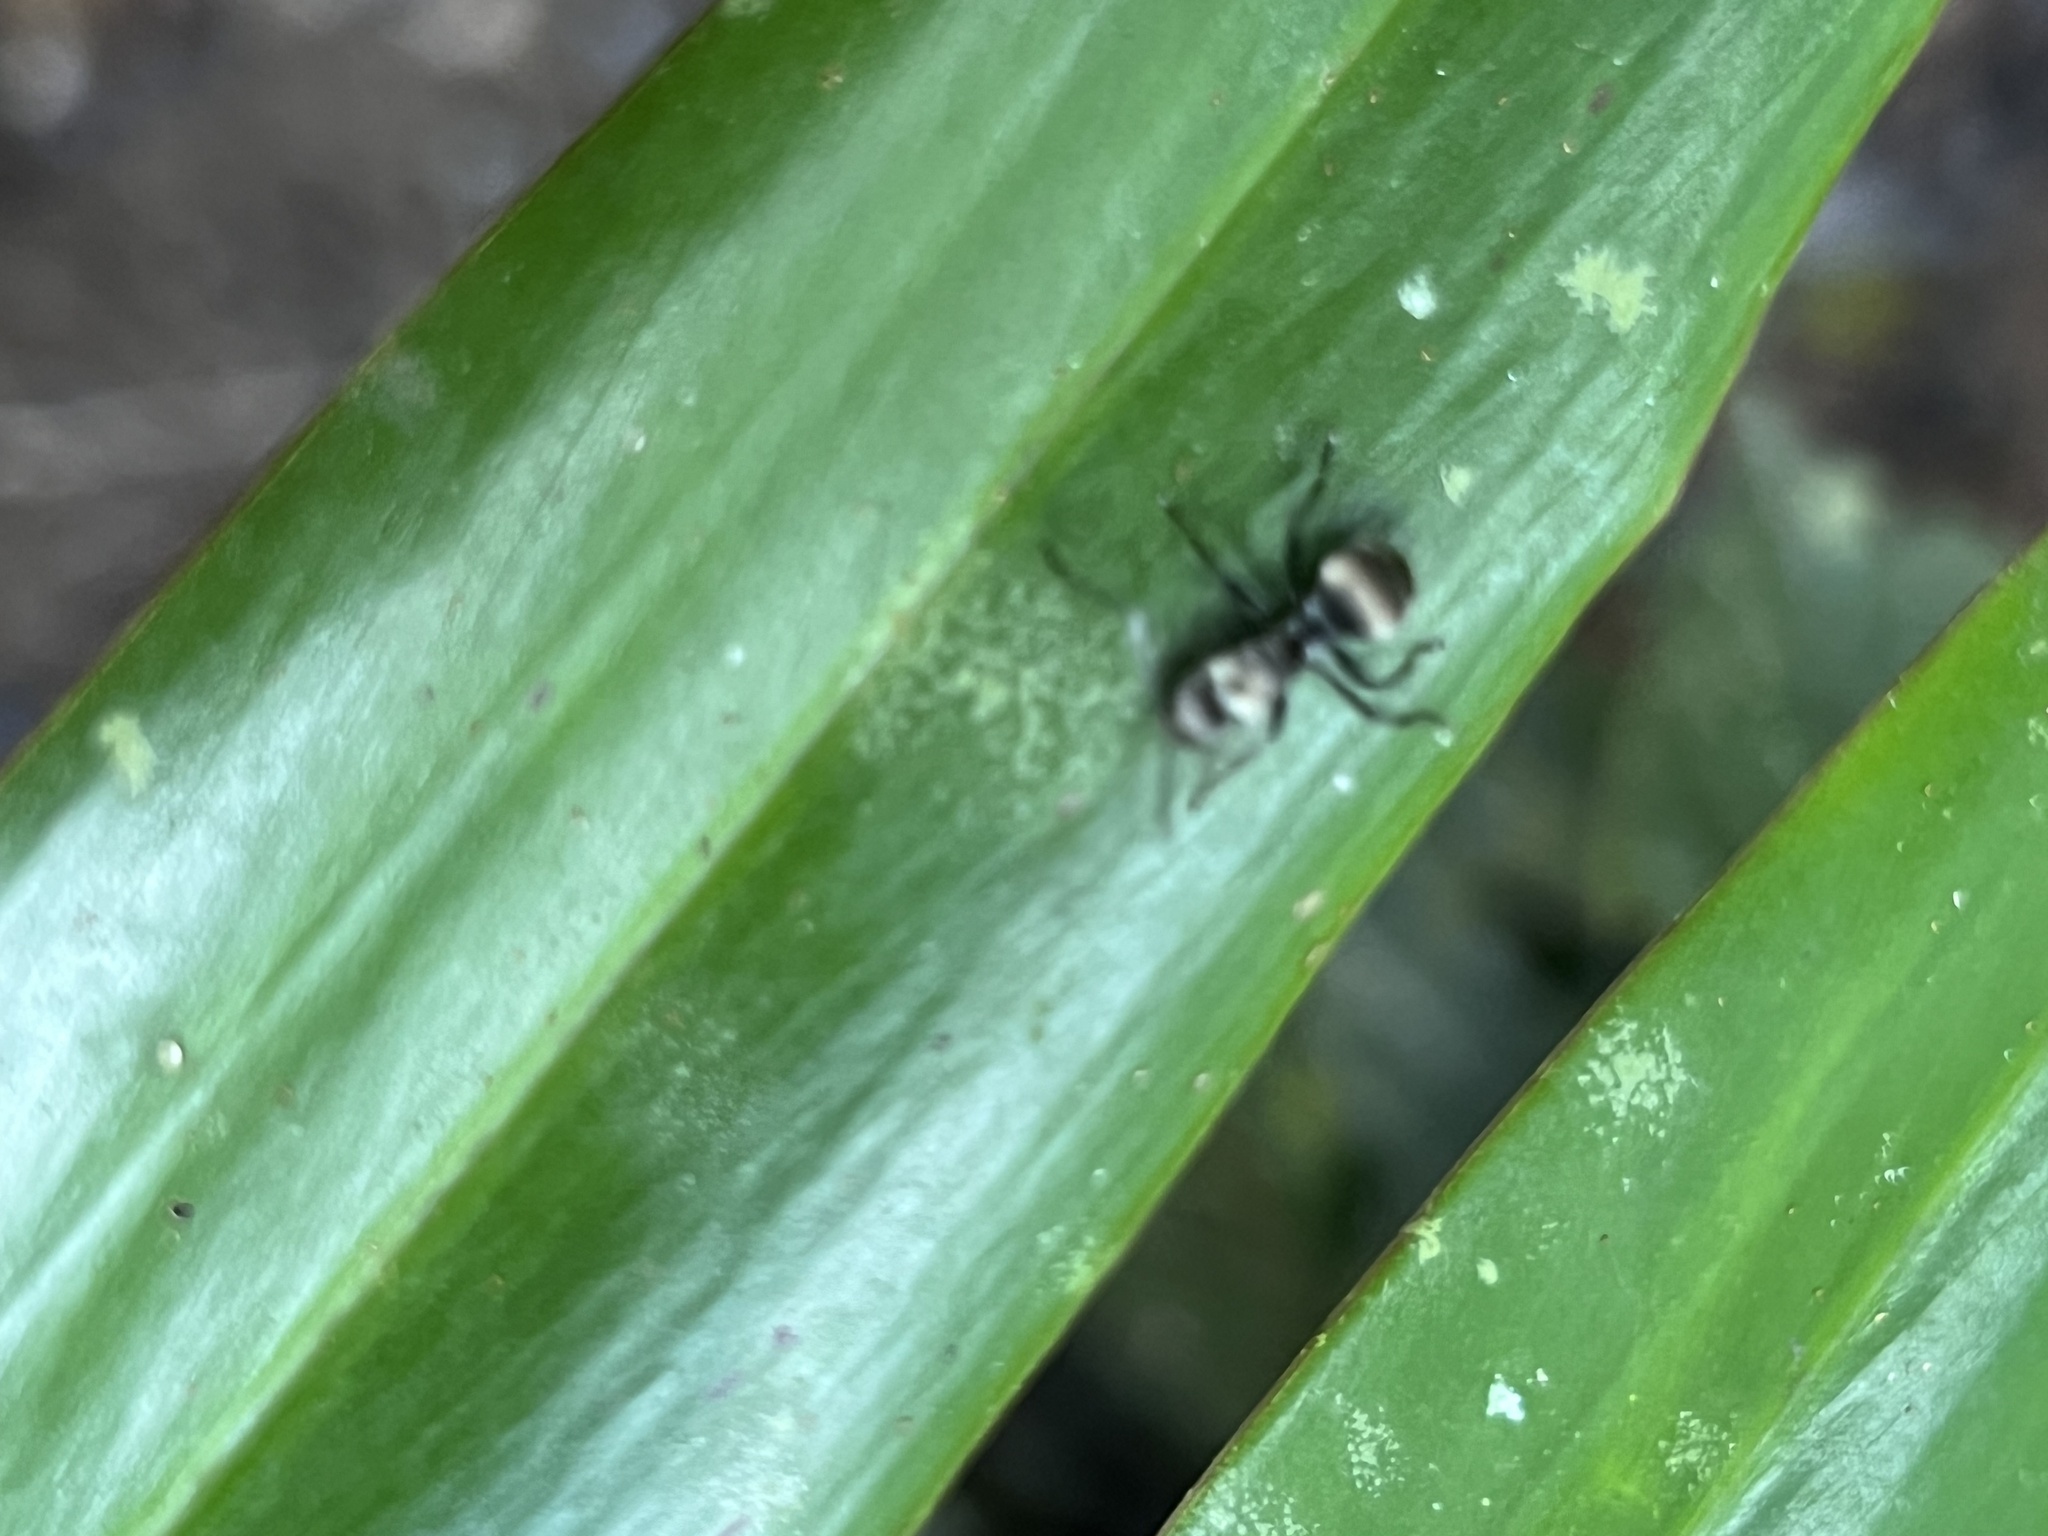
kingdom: Animalia
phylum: Arthropoda
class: Insecta
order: Hymenoptera
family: Formicidae
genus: Polyrhachis
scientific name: Polyrhachis foreli
